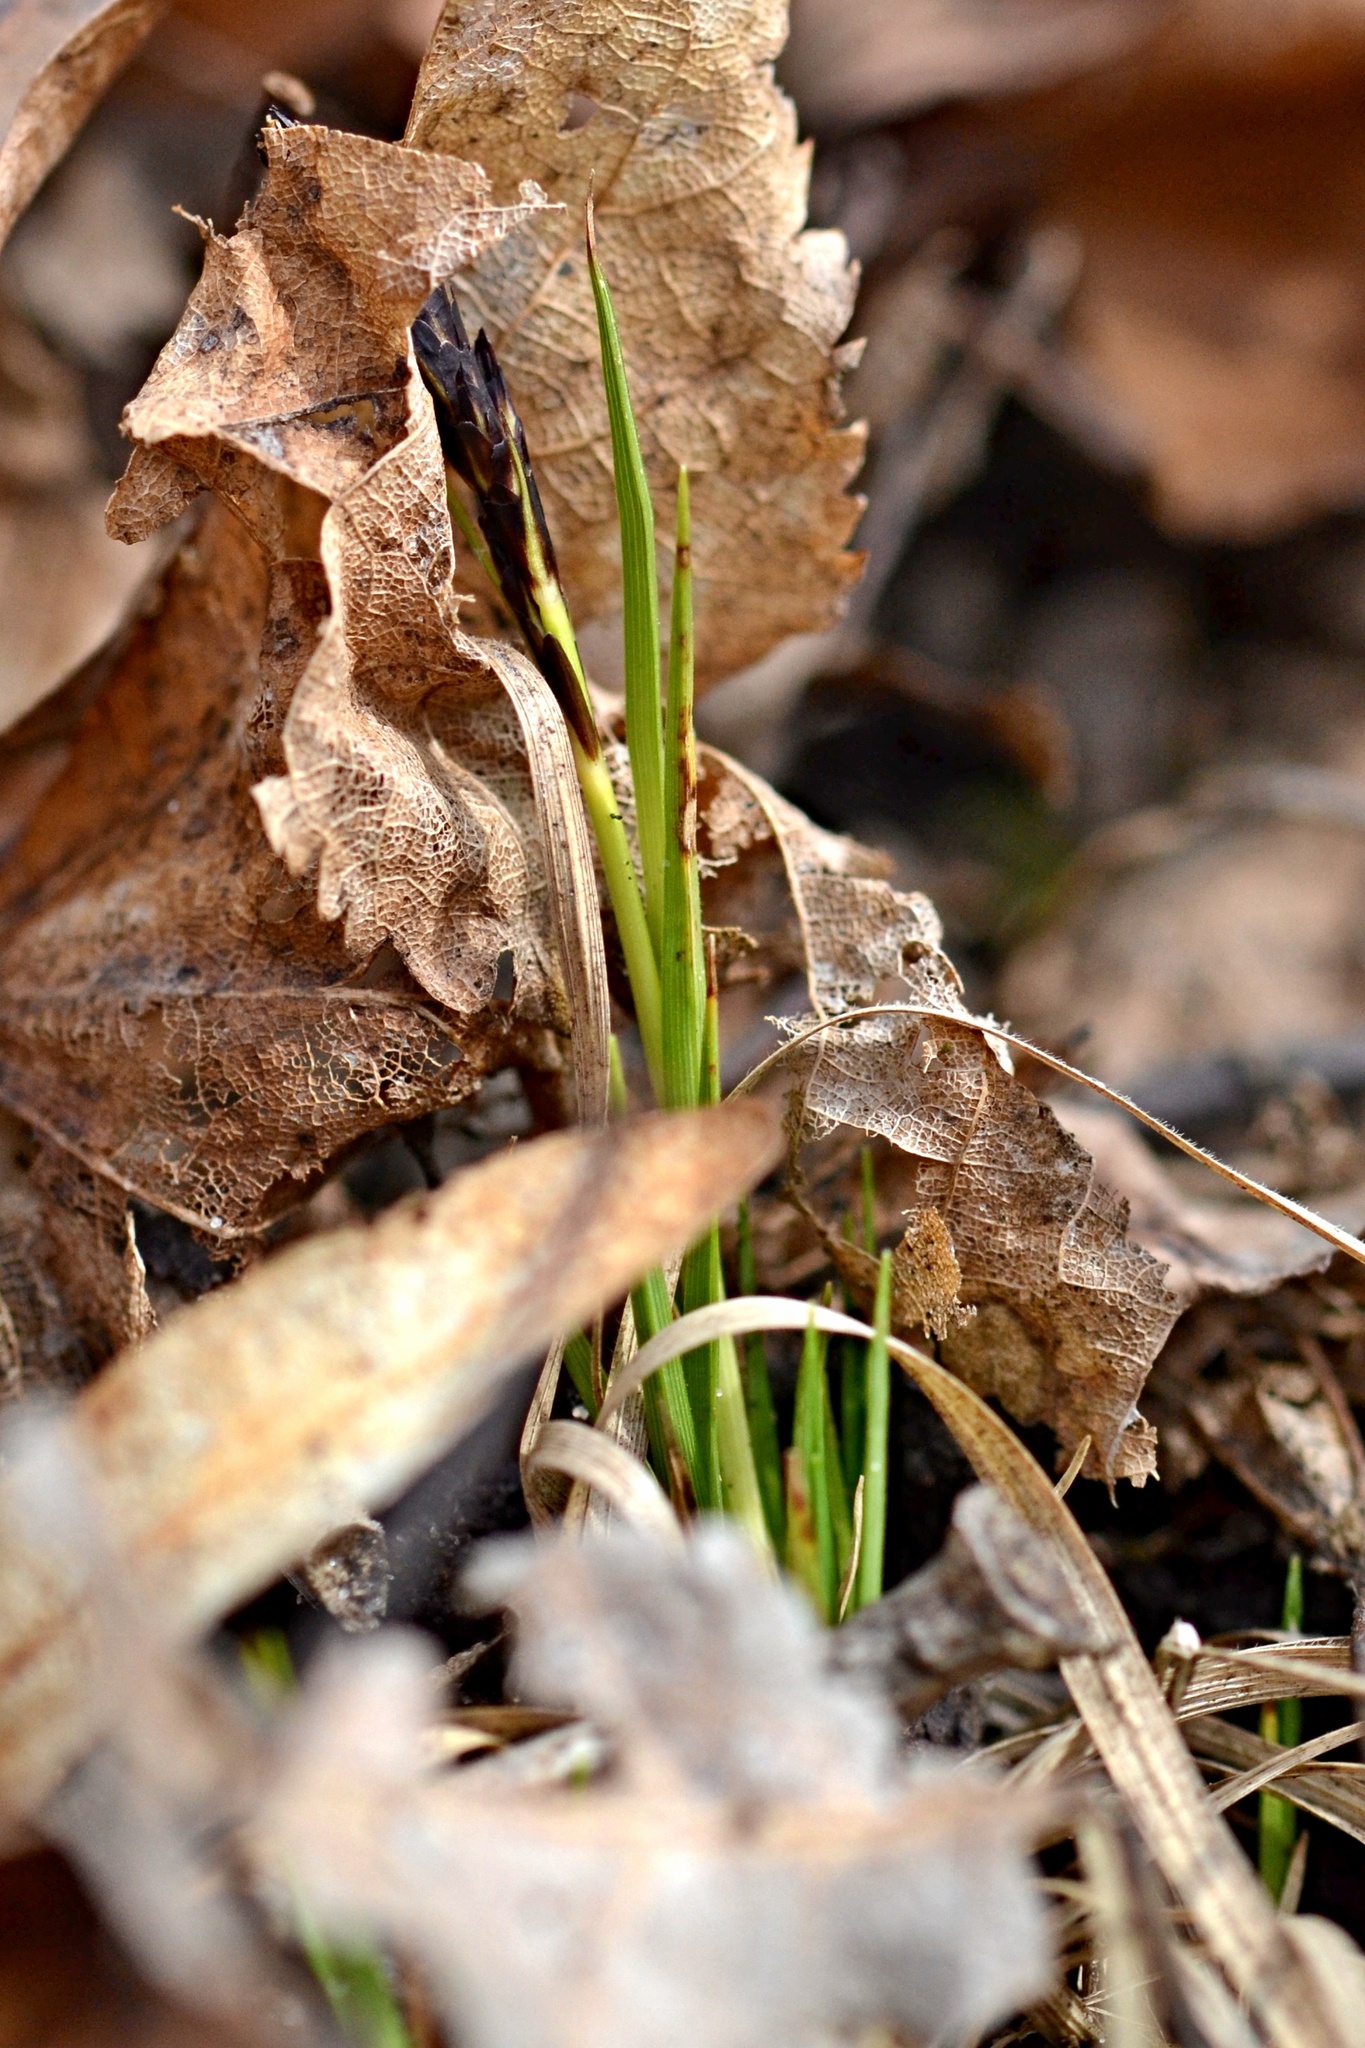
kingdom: Plantae
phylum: Tracheophyta
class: Liliopsida
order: Poales
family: Cyperaceae
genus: Carex
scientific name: Carex caryophyllea
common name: Spring sedge
